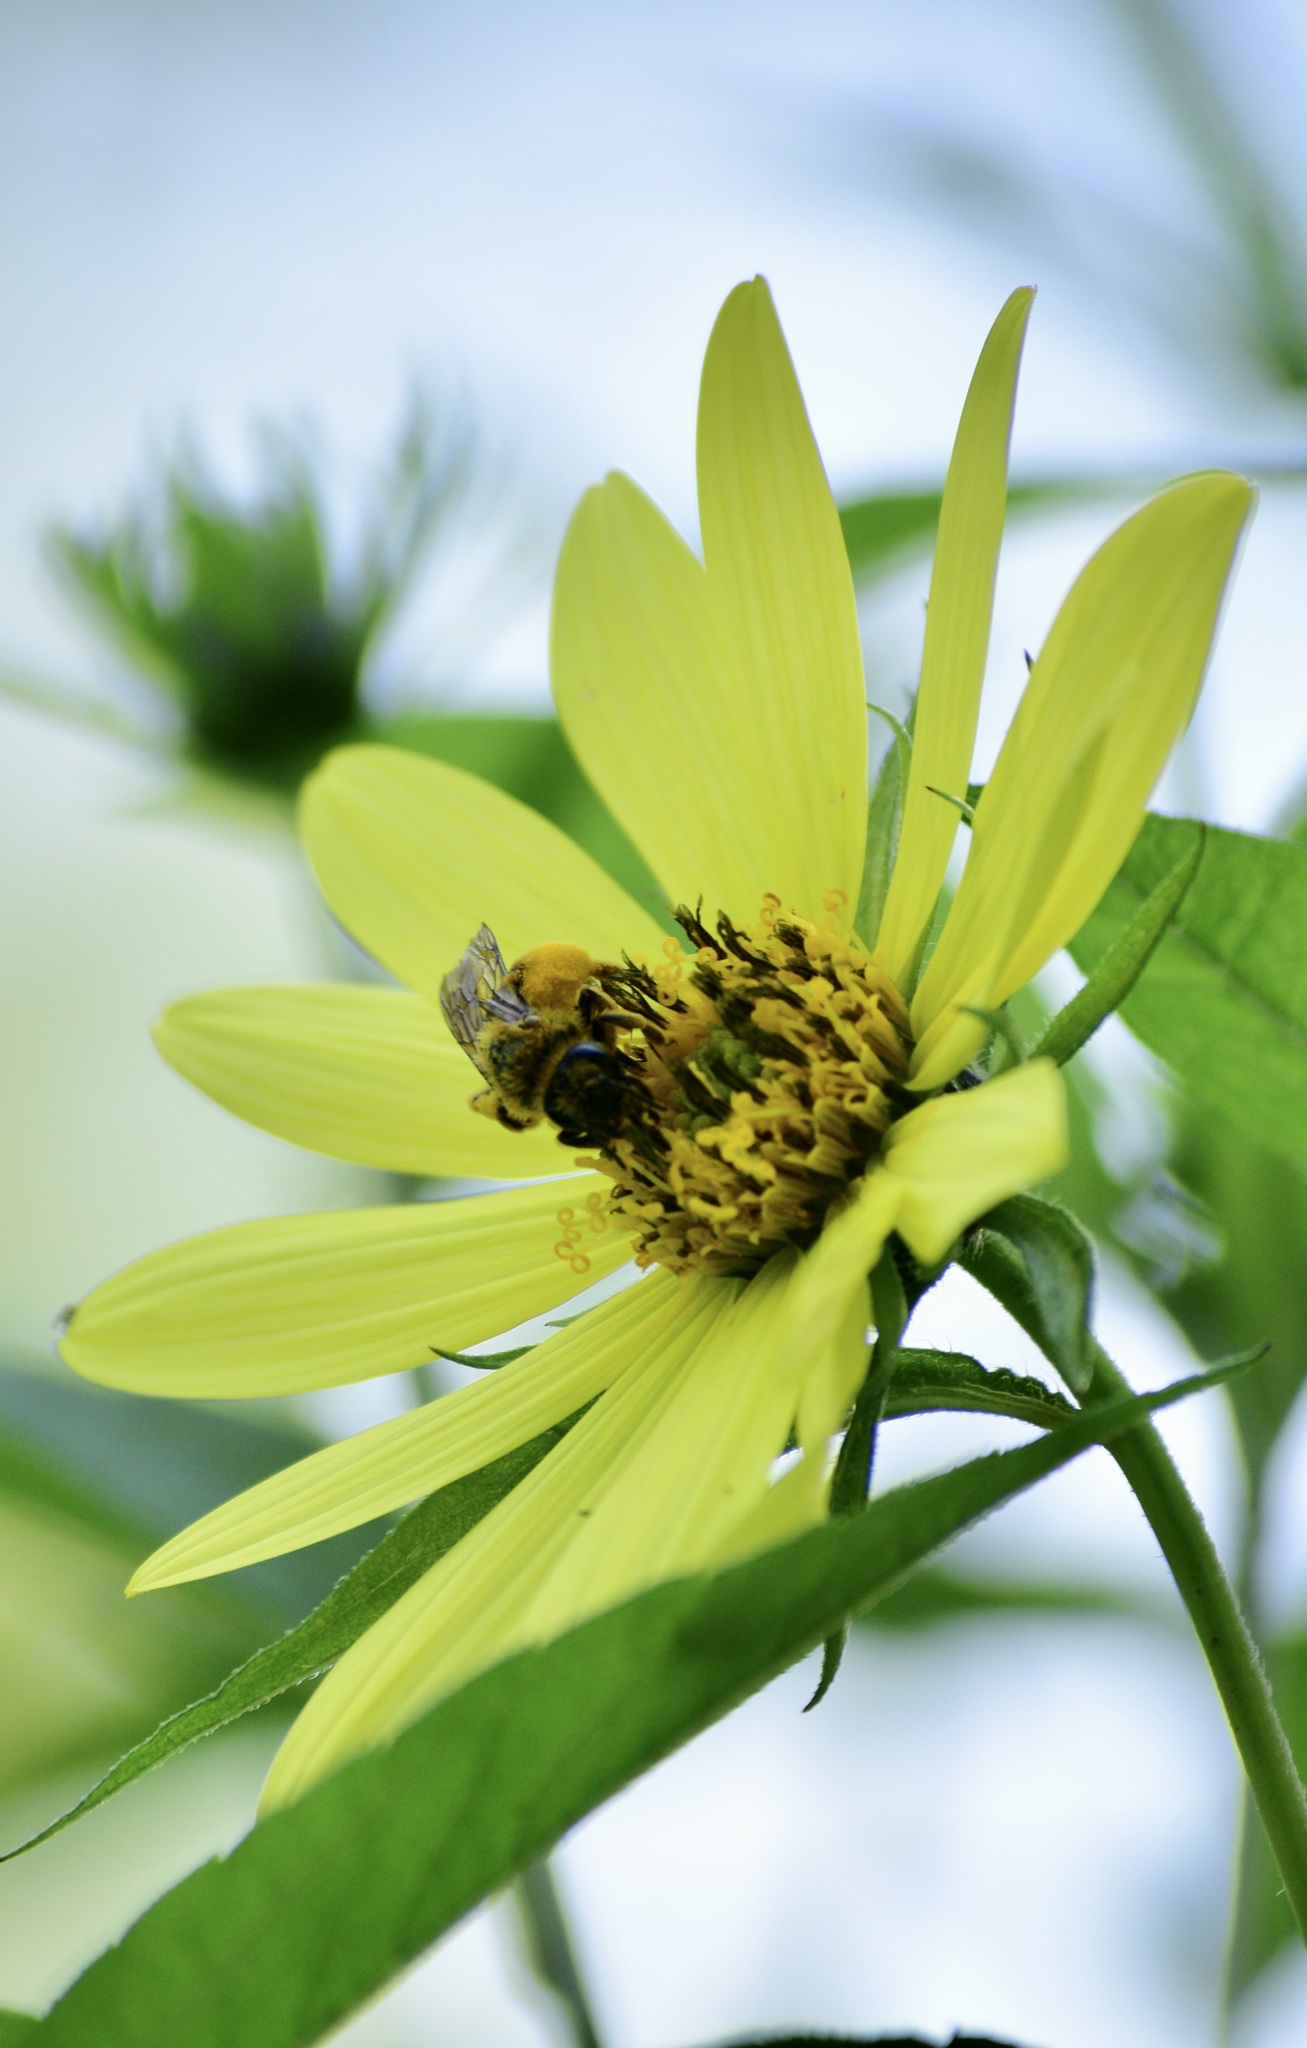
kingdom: Animalia
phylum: Arthropoda
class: Insecta
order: Hymenoptera
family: Andrenidae
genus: Andrena
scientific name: Andrena helianthi
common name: Sunflower mining bee
